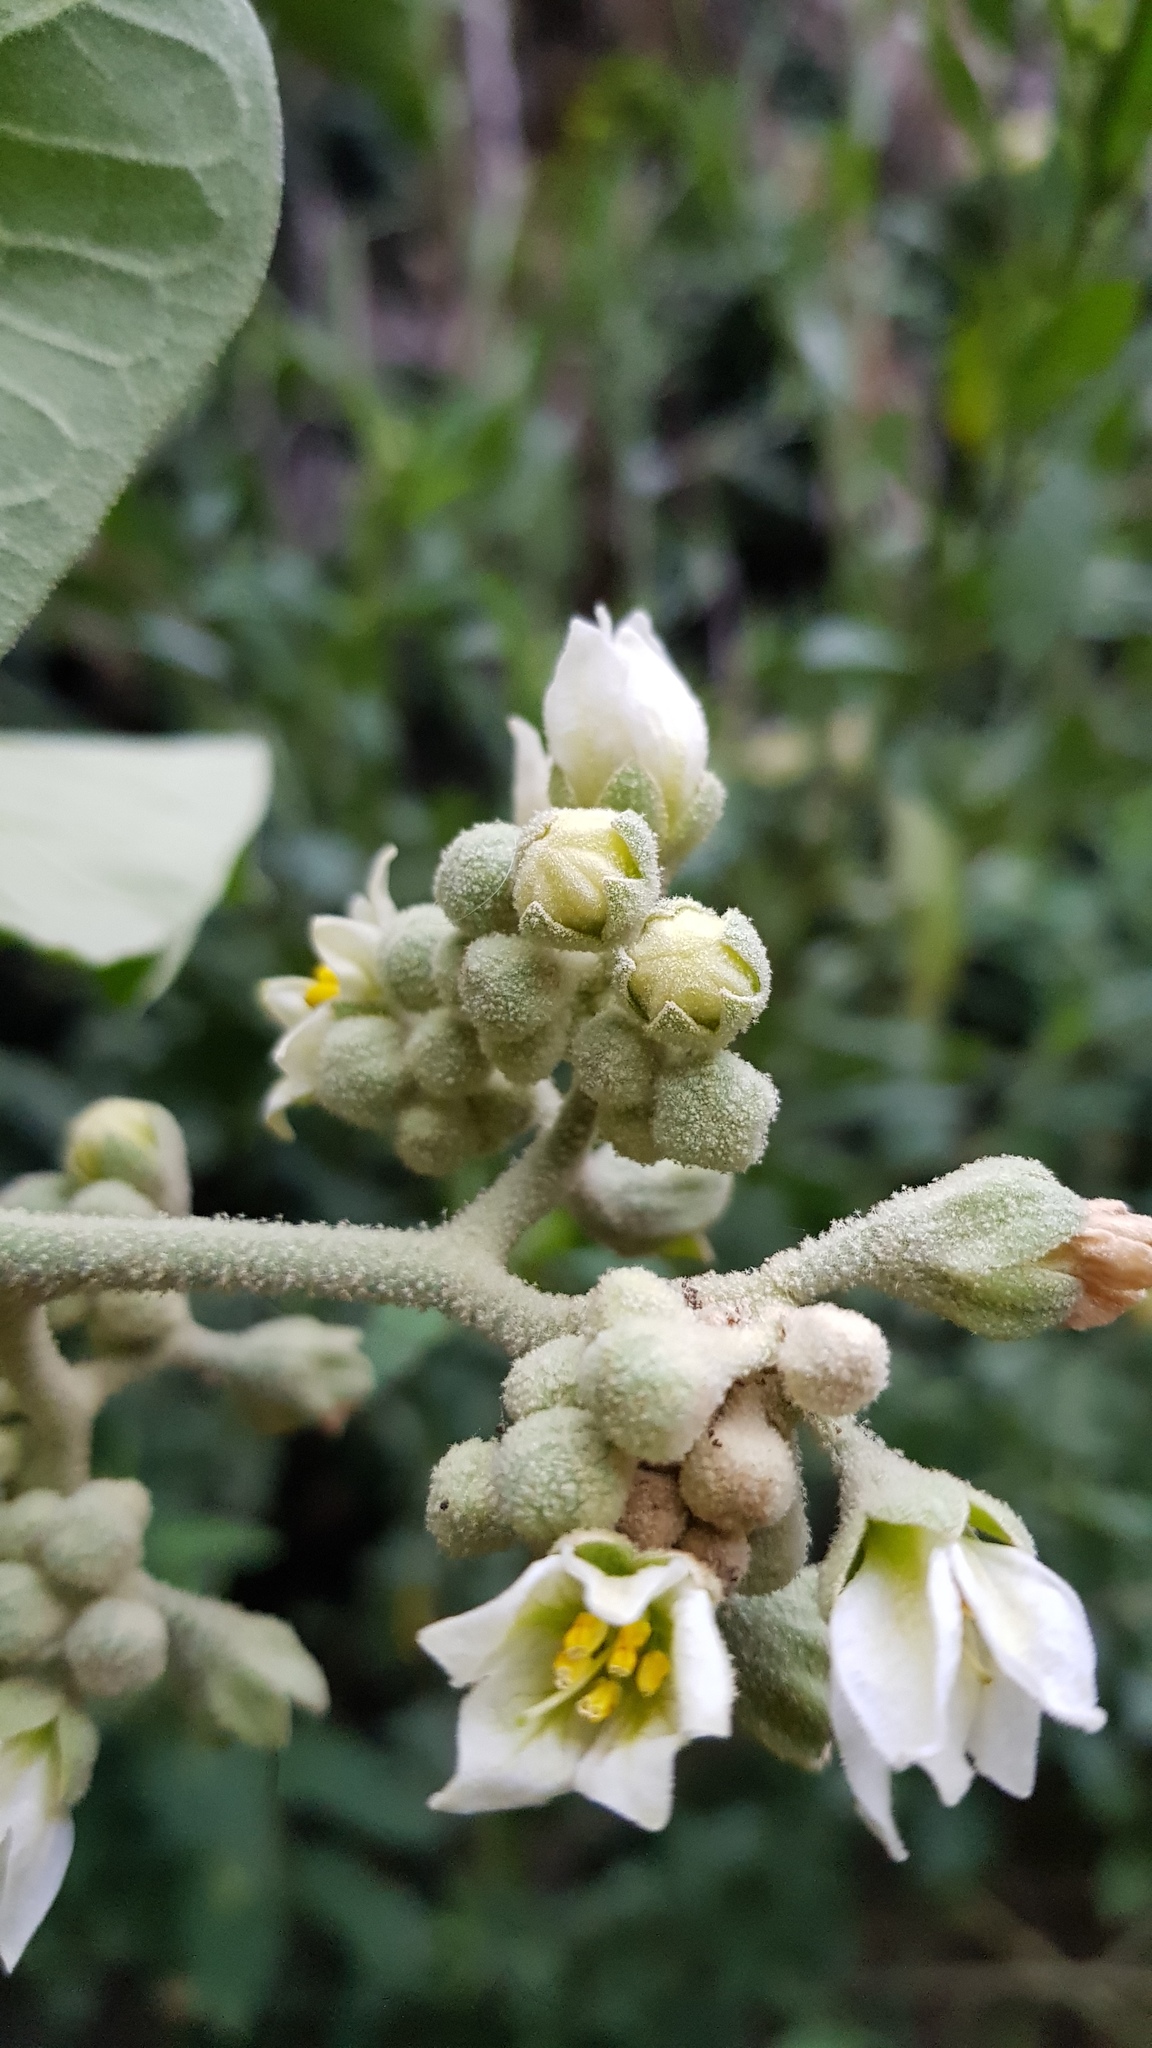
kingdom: Plantae
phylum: Tracheophyta
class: Magnoliopsida
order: Solanales
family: Solanaceae
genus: Solanum
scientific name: Solanum erianthum
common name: Tobacco-tree
